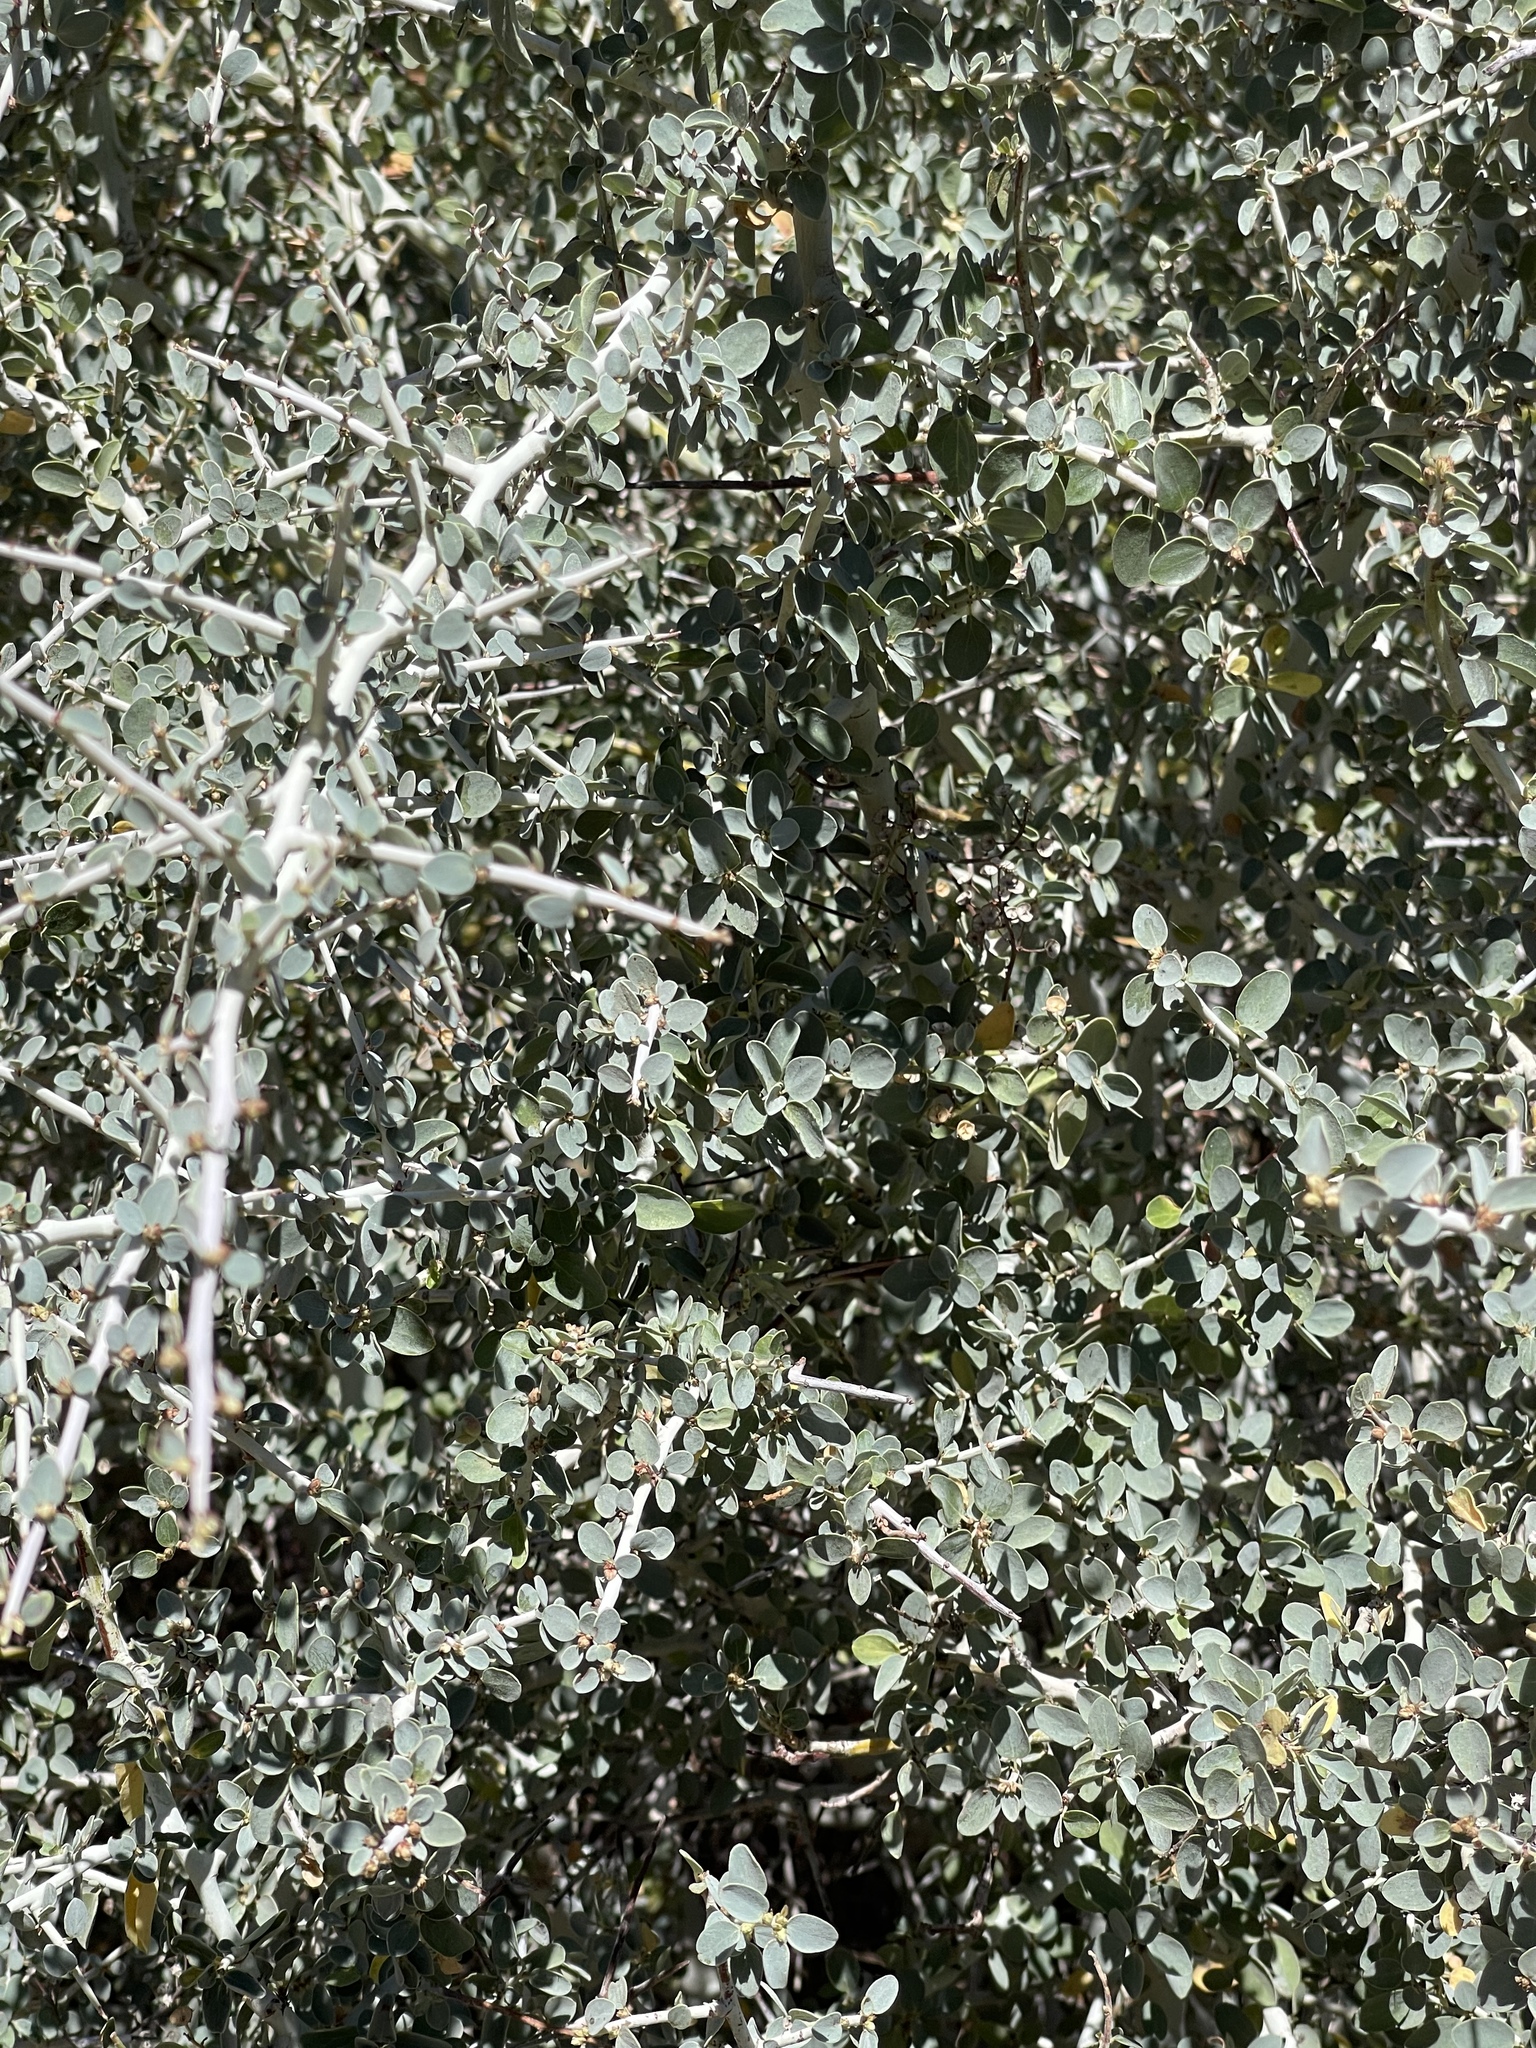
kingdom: Plantae
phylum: Tracheophyta
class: Magnoliopsida
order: Rosales
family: Rhamnaceae
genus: Ceanothus
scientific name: Ceanothus leucodermis
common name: Chaparral whitethorn
